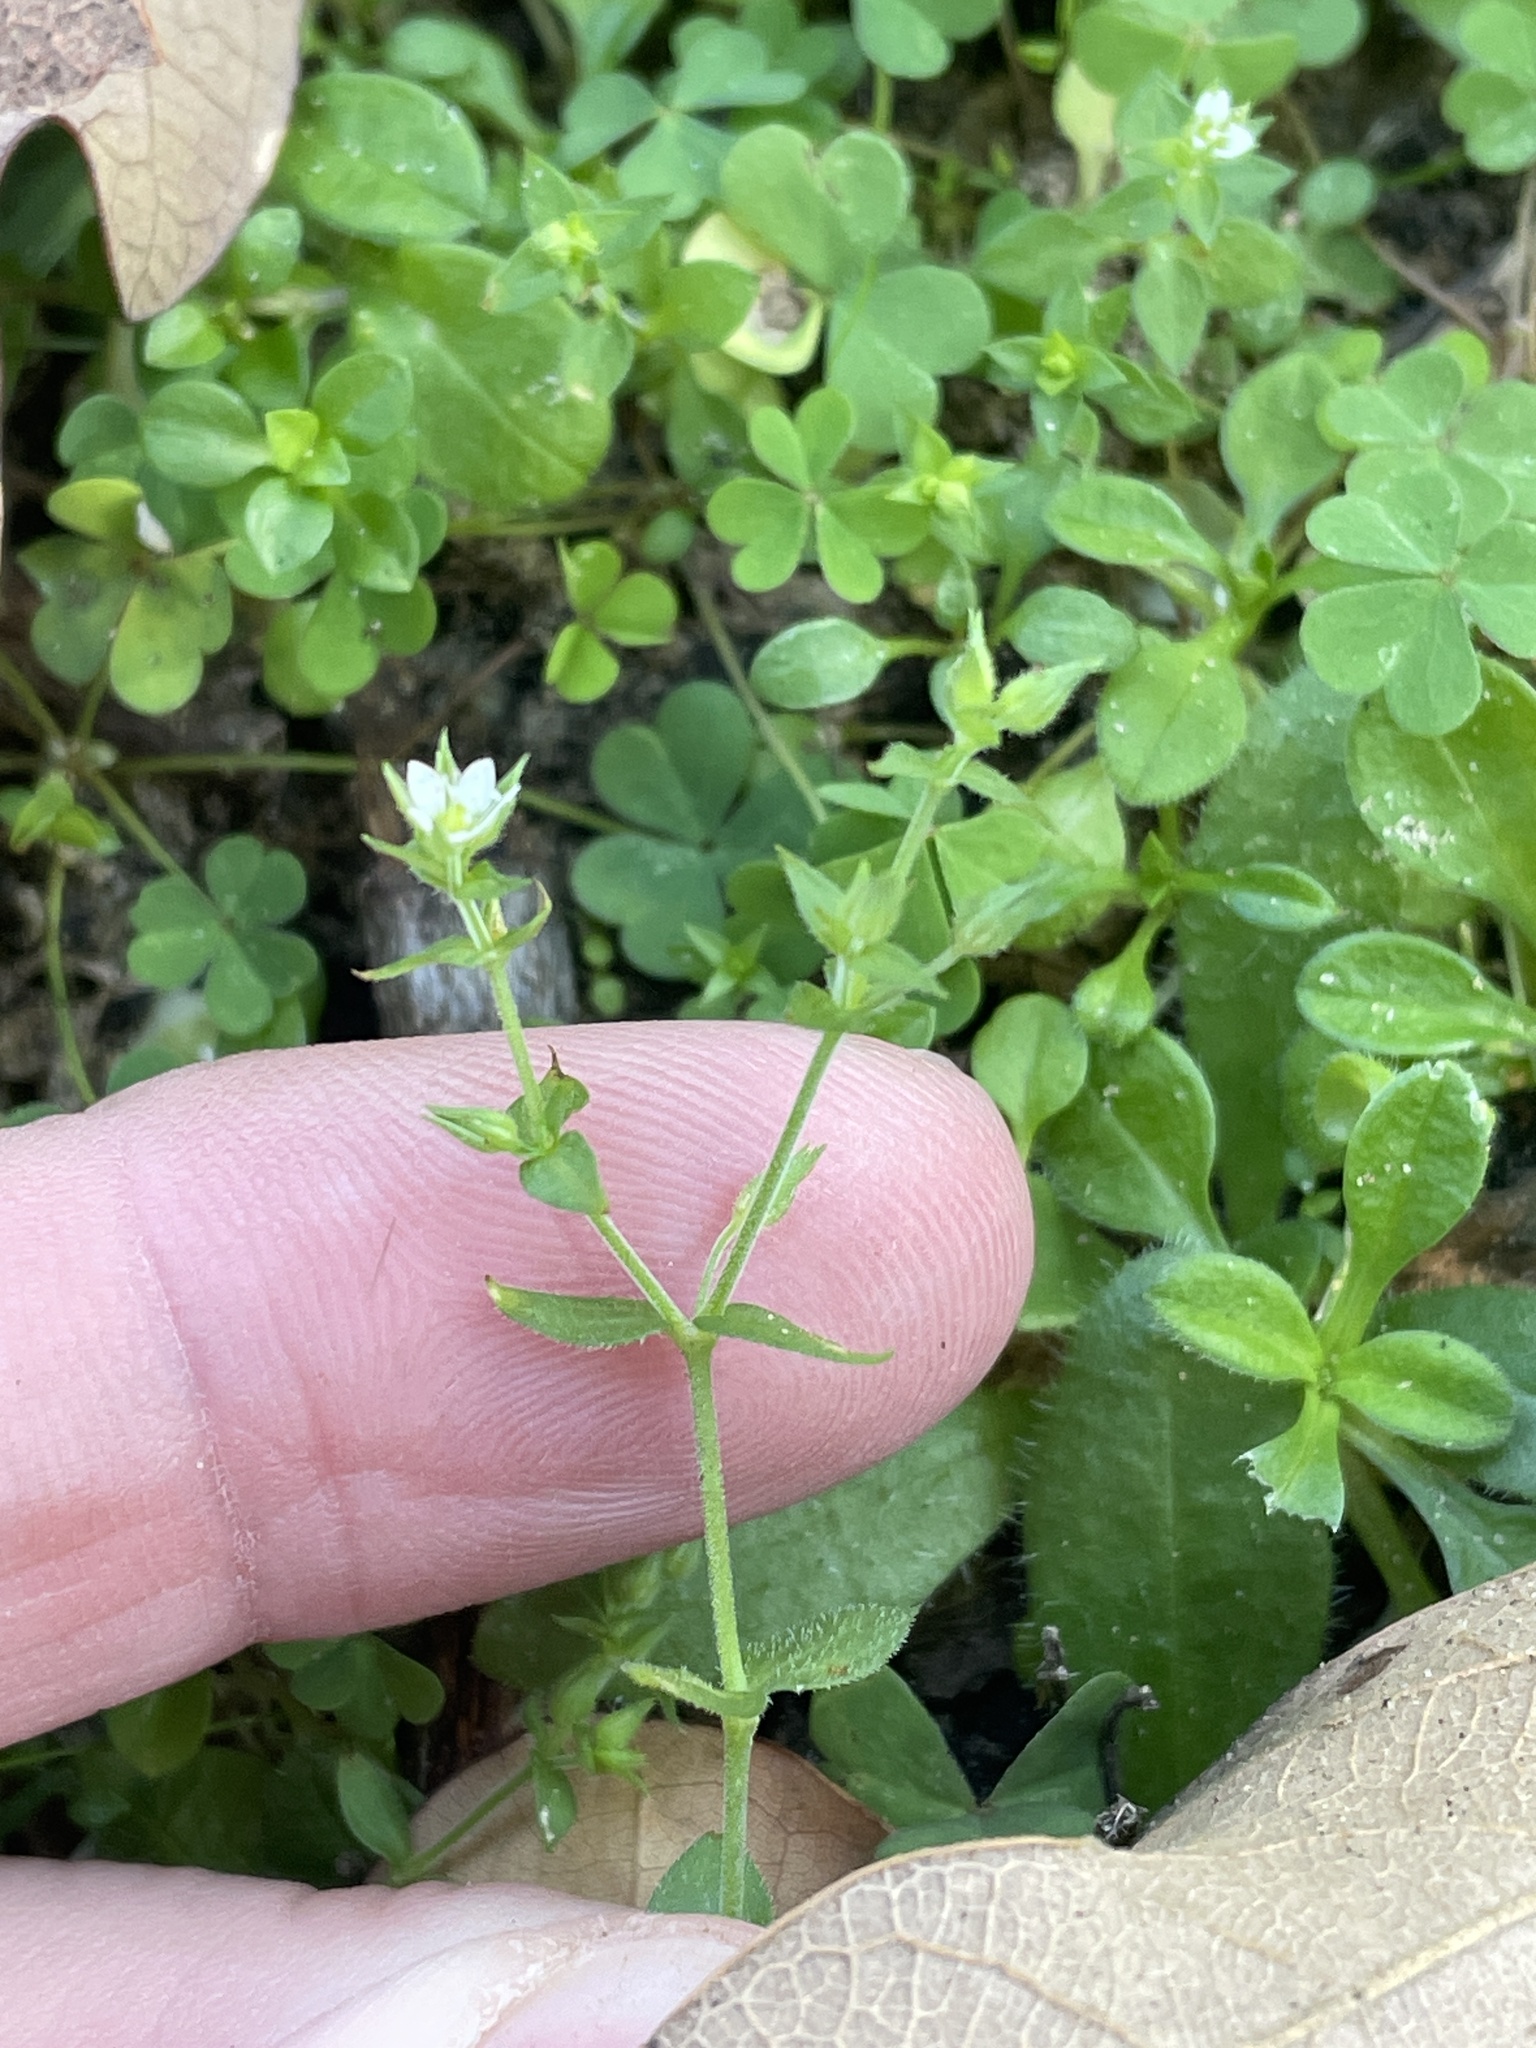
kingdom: Plantae
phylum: Tracheophyta
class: Magnoliopsida
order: Caryophyllales
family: Caryophyllaceae
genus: Arenaria
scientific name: Arenaria serpyllifolia
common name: Thyme-leaved sandwort
